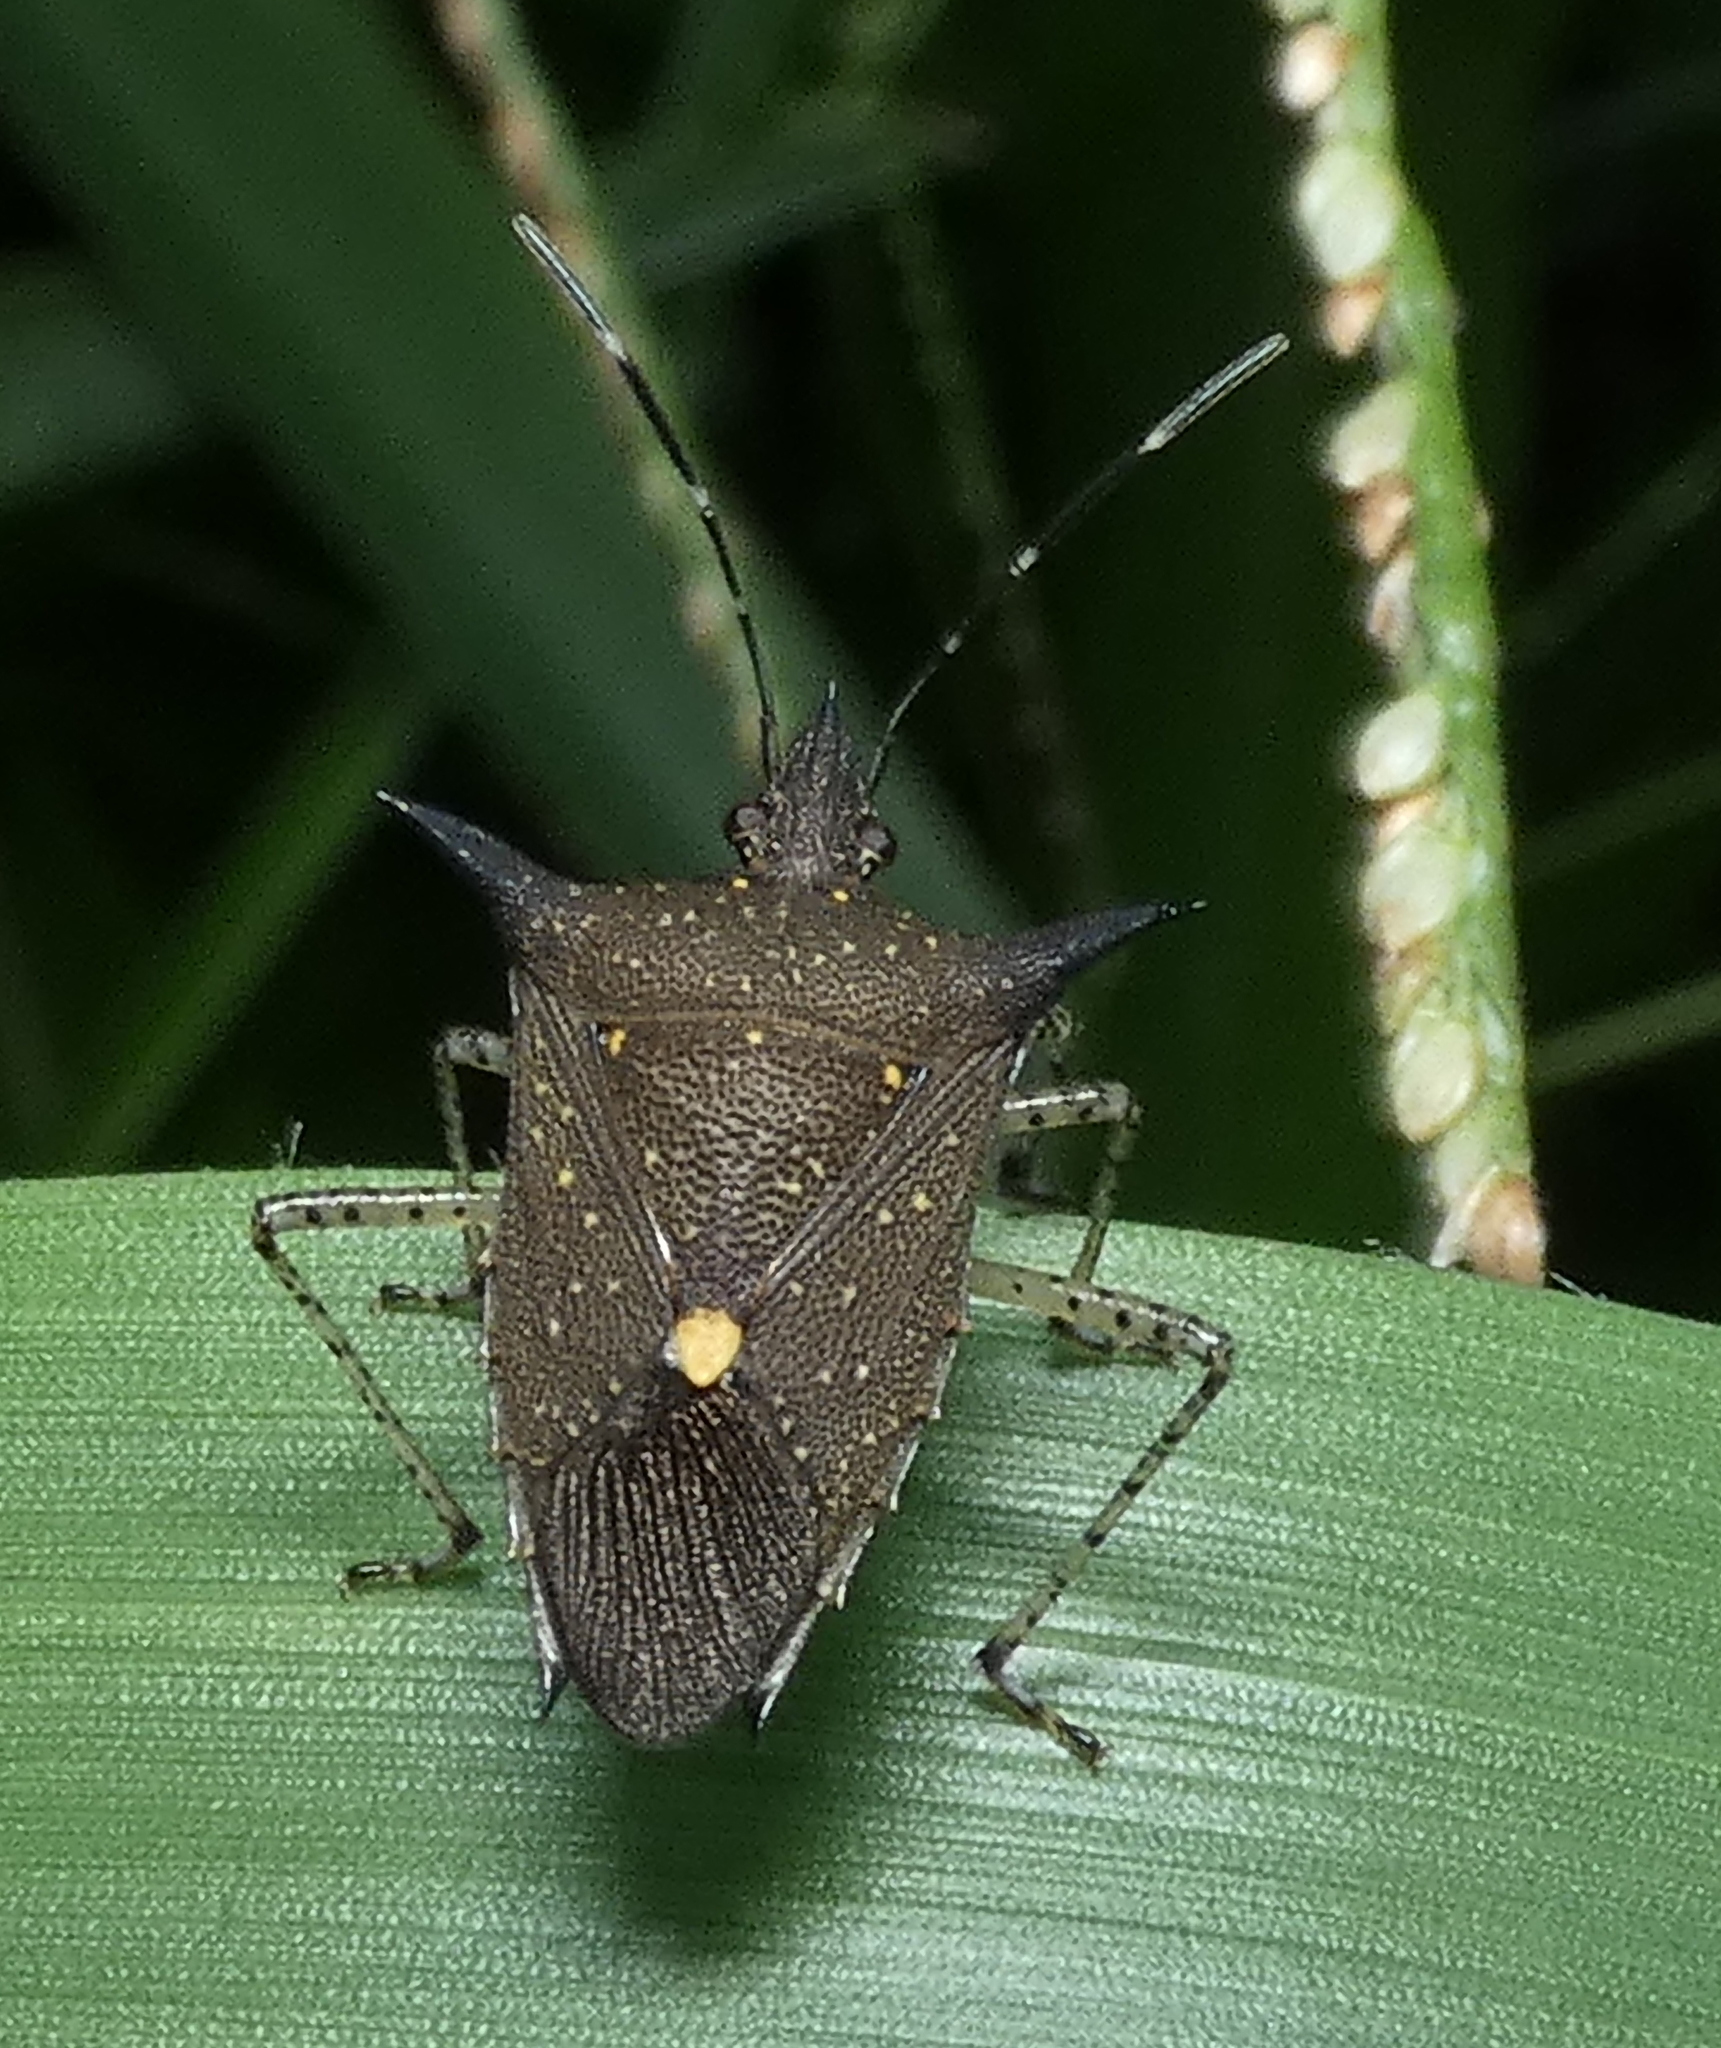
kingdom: Animalia
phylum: Arthropoda
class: Insecta
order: Hemiptera
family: Pentatomidae
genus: Proxys
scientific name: Proxys albopunctulatus
